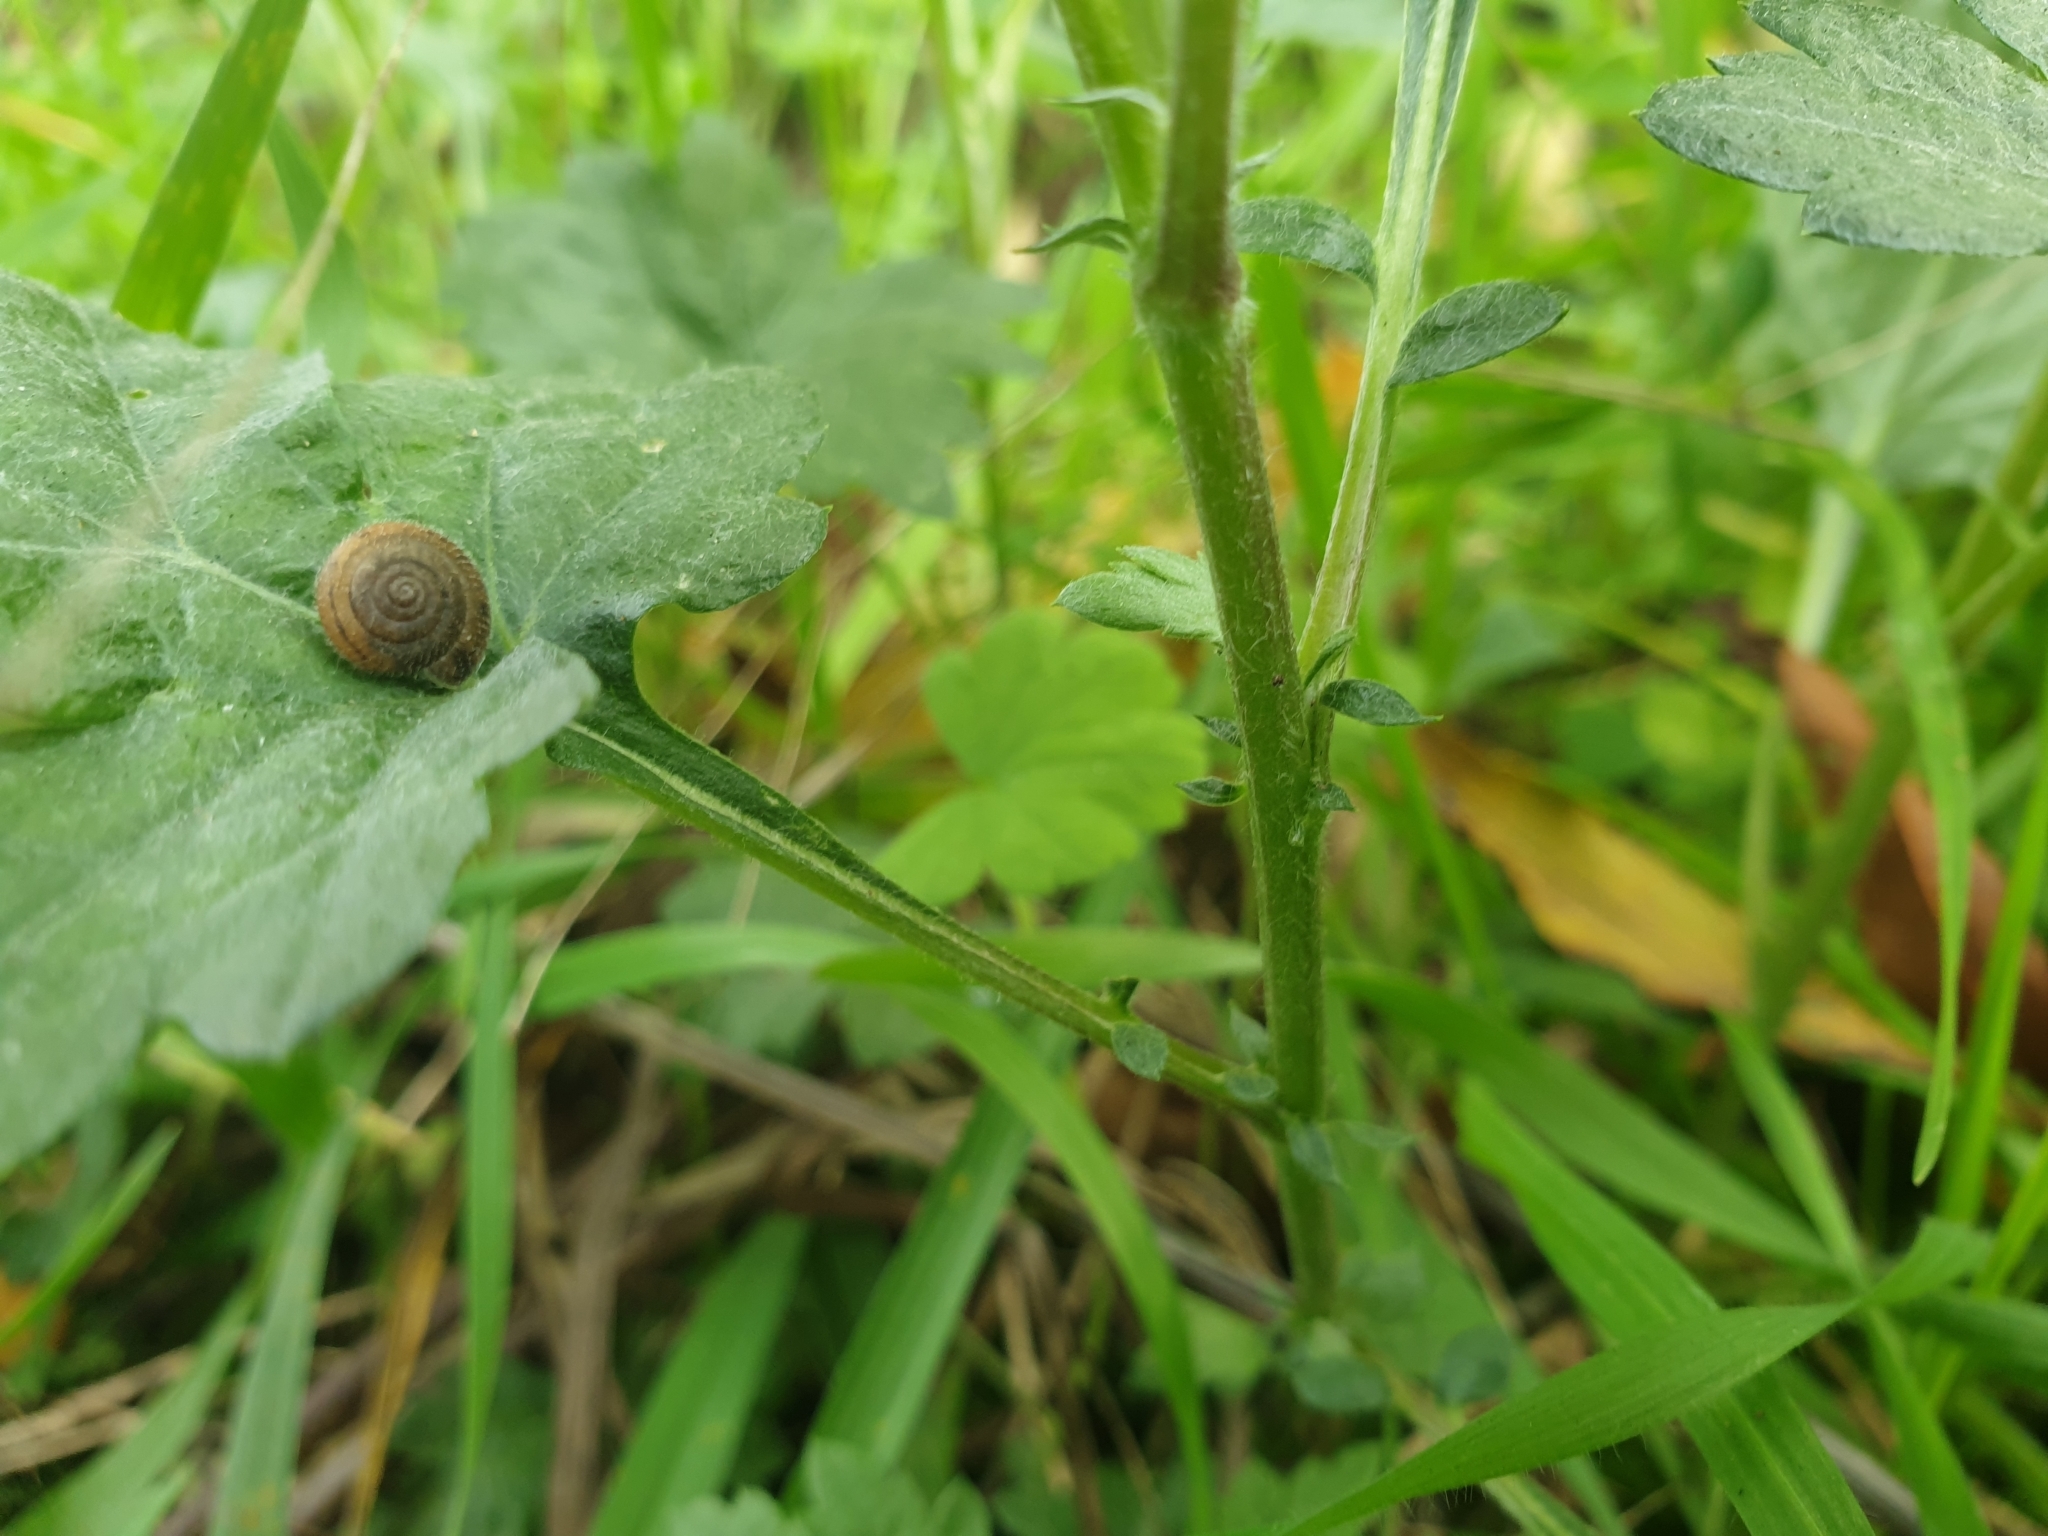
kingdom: Plantae
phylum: Tracheophyta
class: Magnoliopsida
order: Asterales
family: Asteraceae
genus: Artemisia
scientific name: Artemisia vulgaris
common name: Mugwort
